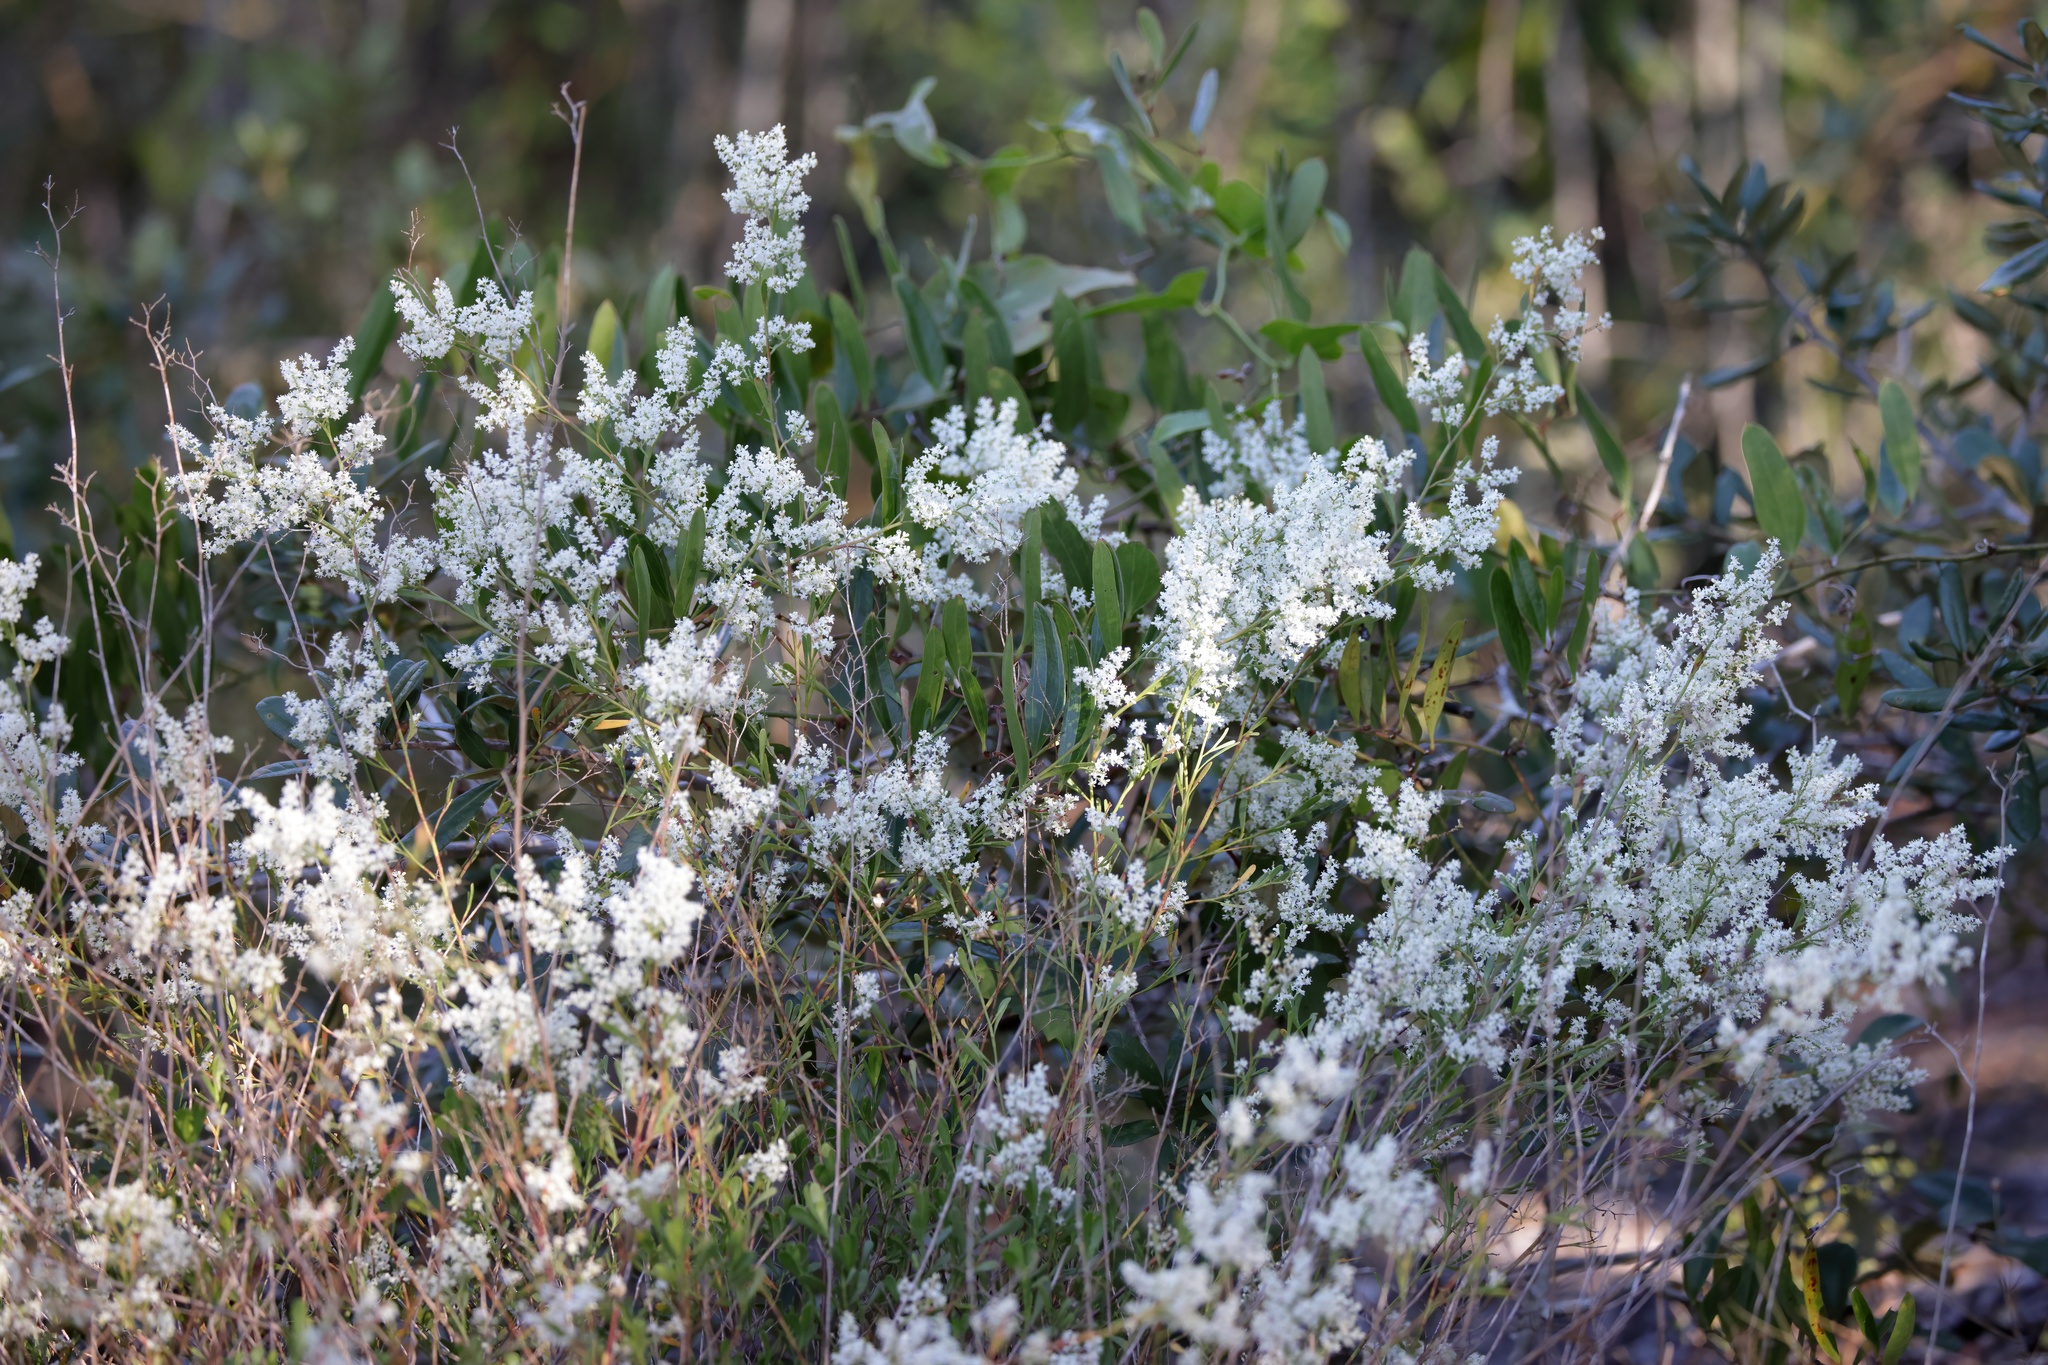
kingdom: Plantae
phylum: Tracheophyta
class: Magnoliopsida
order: Caryophyllales
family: Polygonaceae
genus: Polygonella
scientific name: Polygonella polygama
